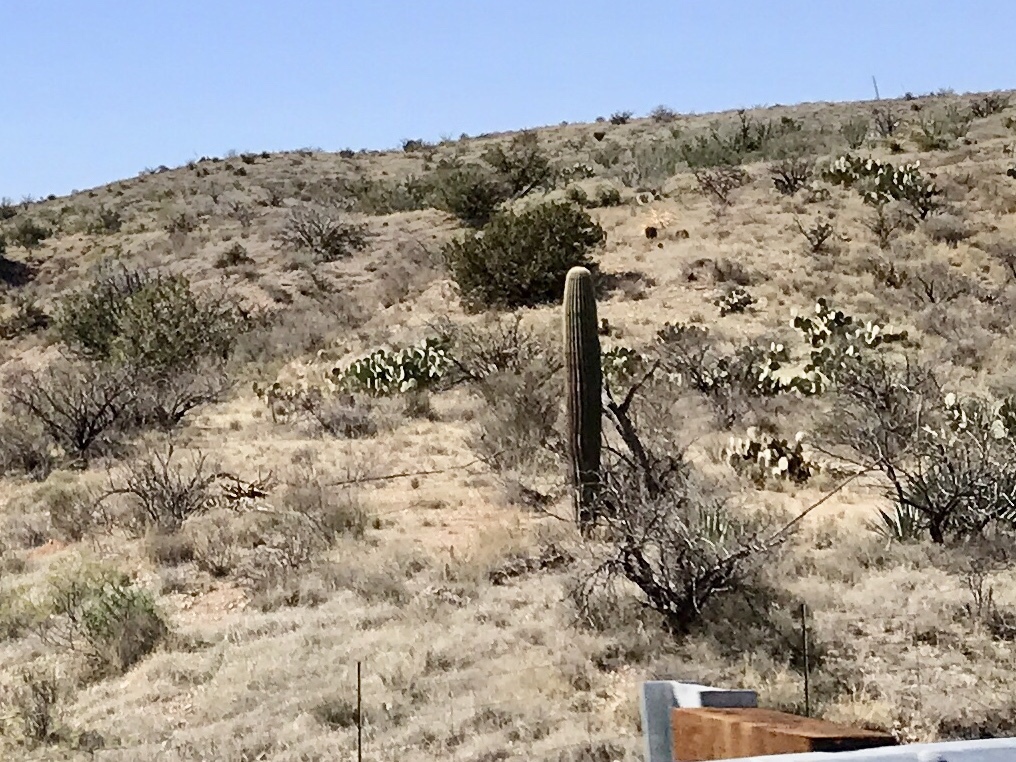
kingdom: Plantae
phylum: Tracheophyta
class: Magnoliopsida
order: Caryophyllales
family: Cactaceae
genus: Carnegiea
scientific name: Carnegiea gigantea
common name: Saguaro
